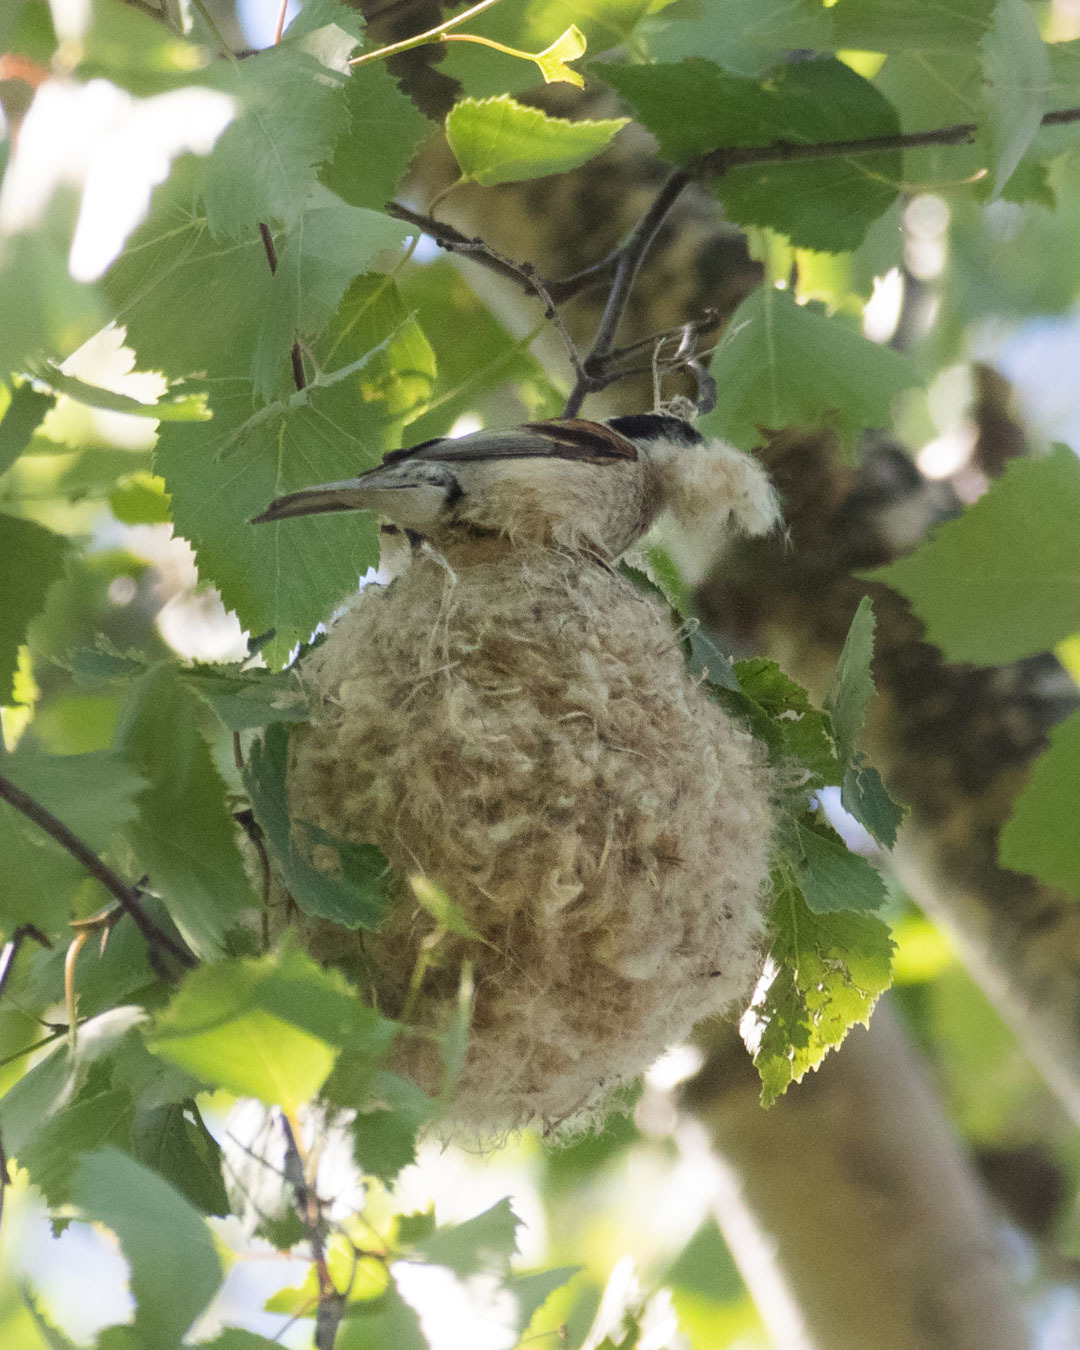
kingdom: Animalia
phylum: Chordata
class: Aves
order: Passeriformes
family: Remizidae
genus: Remiz
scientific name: Remiz pendulinus
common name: Eurasian penduline tit
